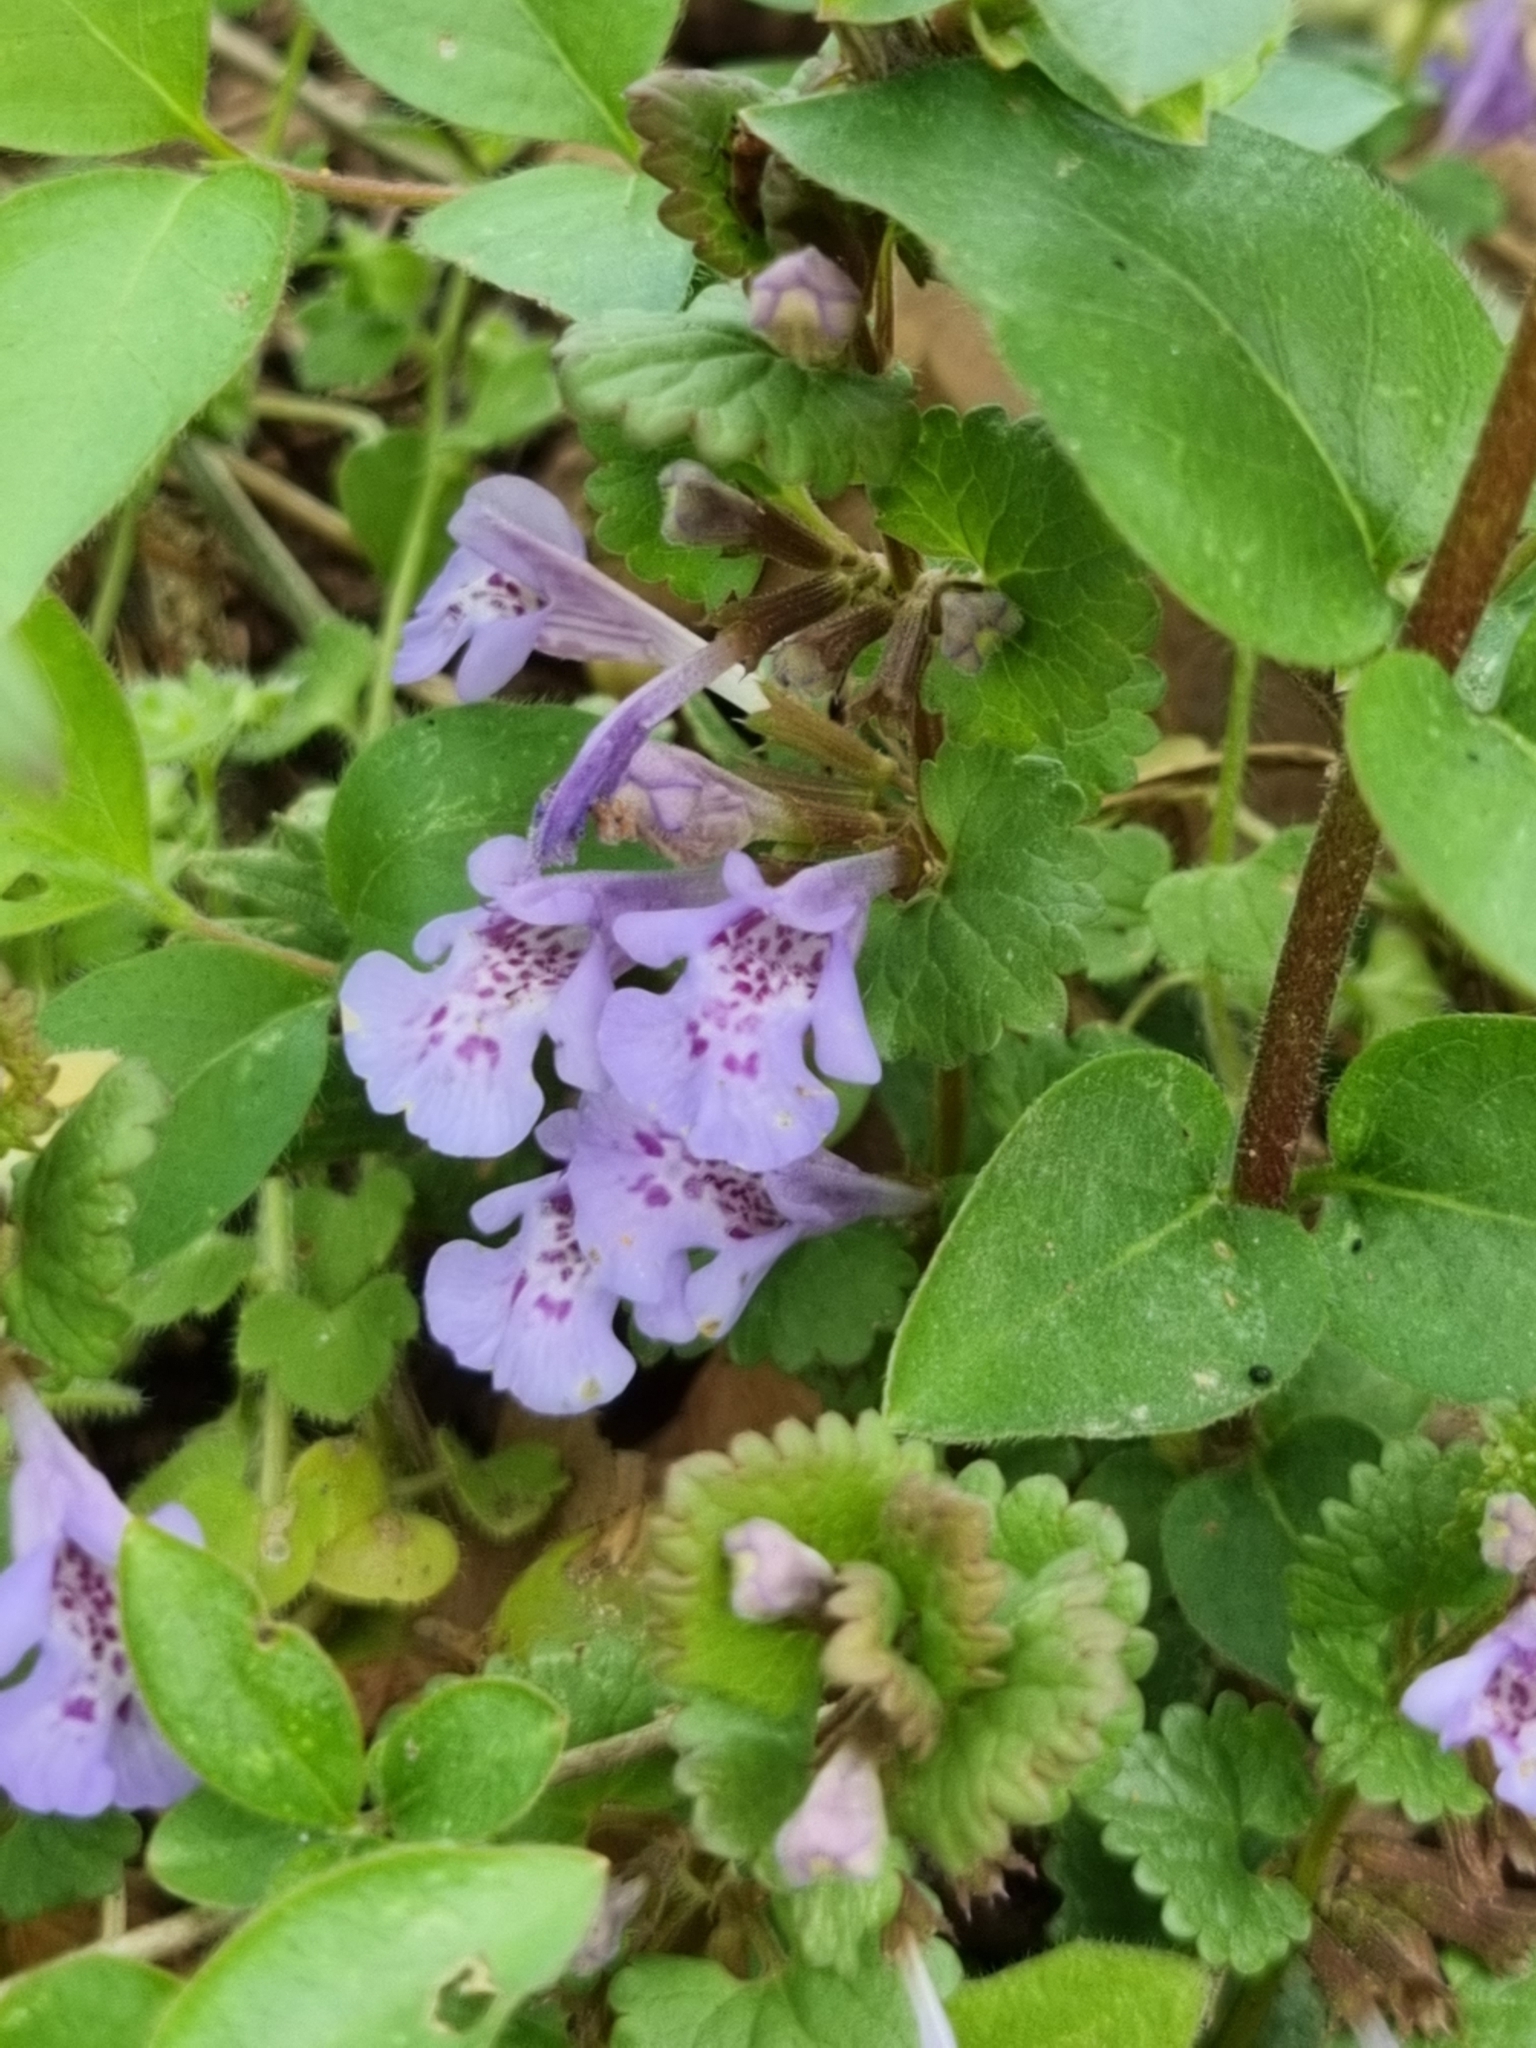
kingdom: Plantae
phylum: Tracheophyta
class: Magnoliopsida
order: Lamiales
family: Lamiaceae
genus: Glechoma
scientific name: Glechoma hederacea
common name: Ground ivy
